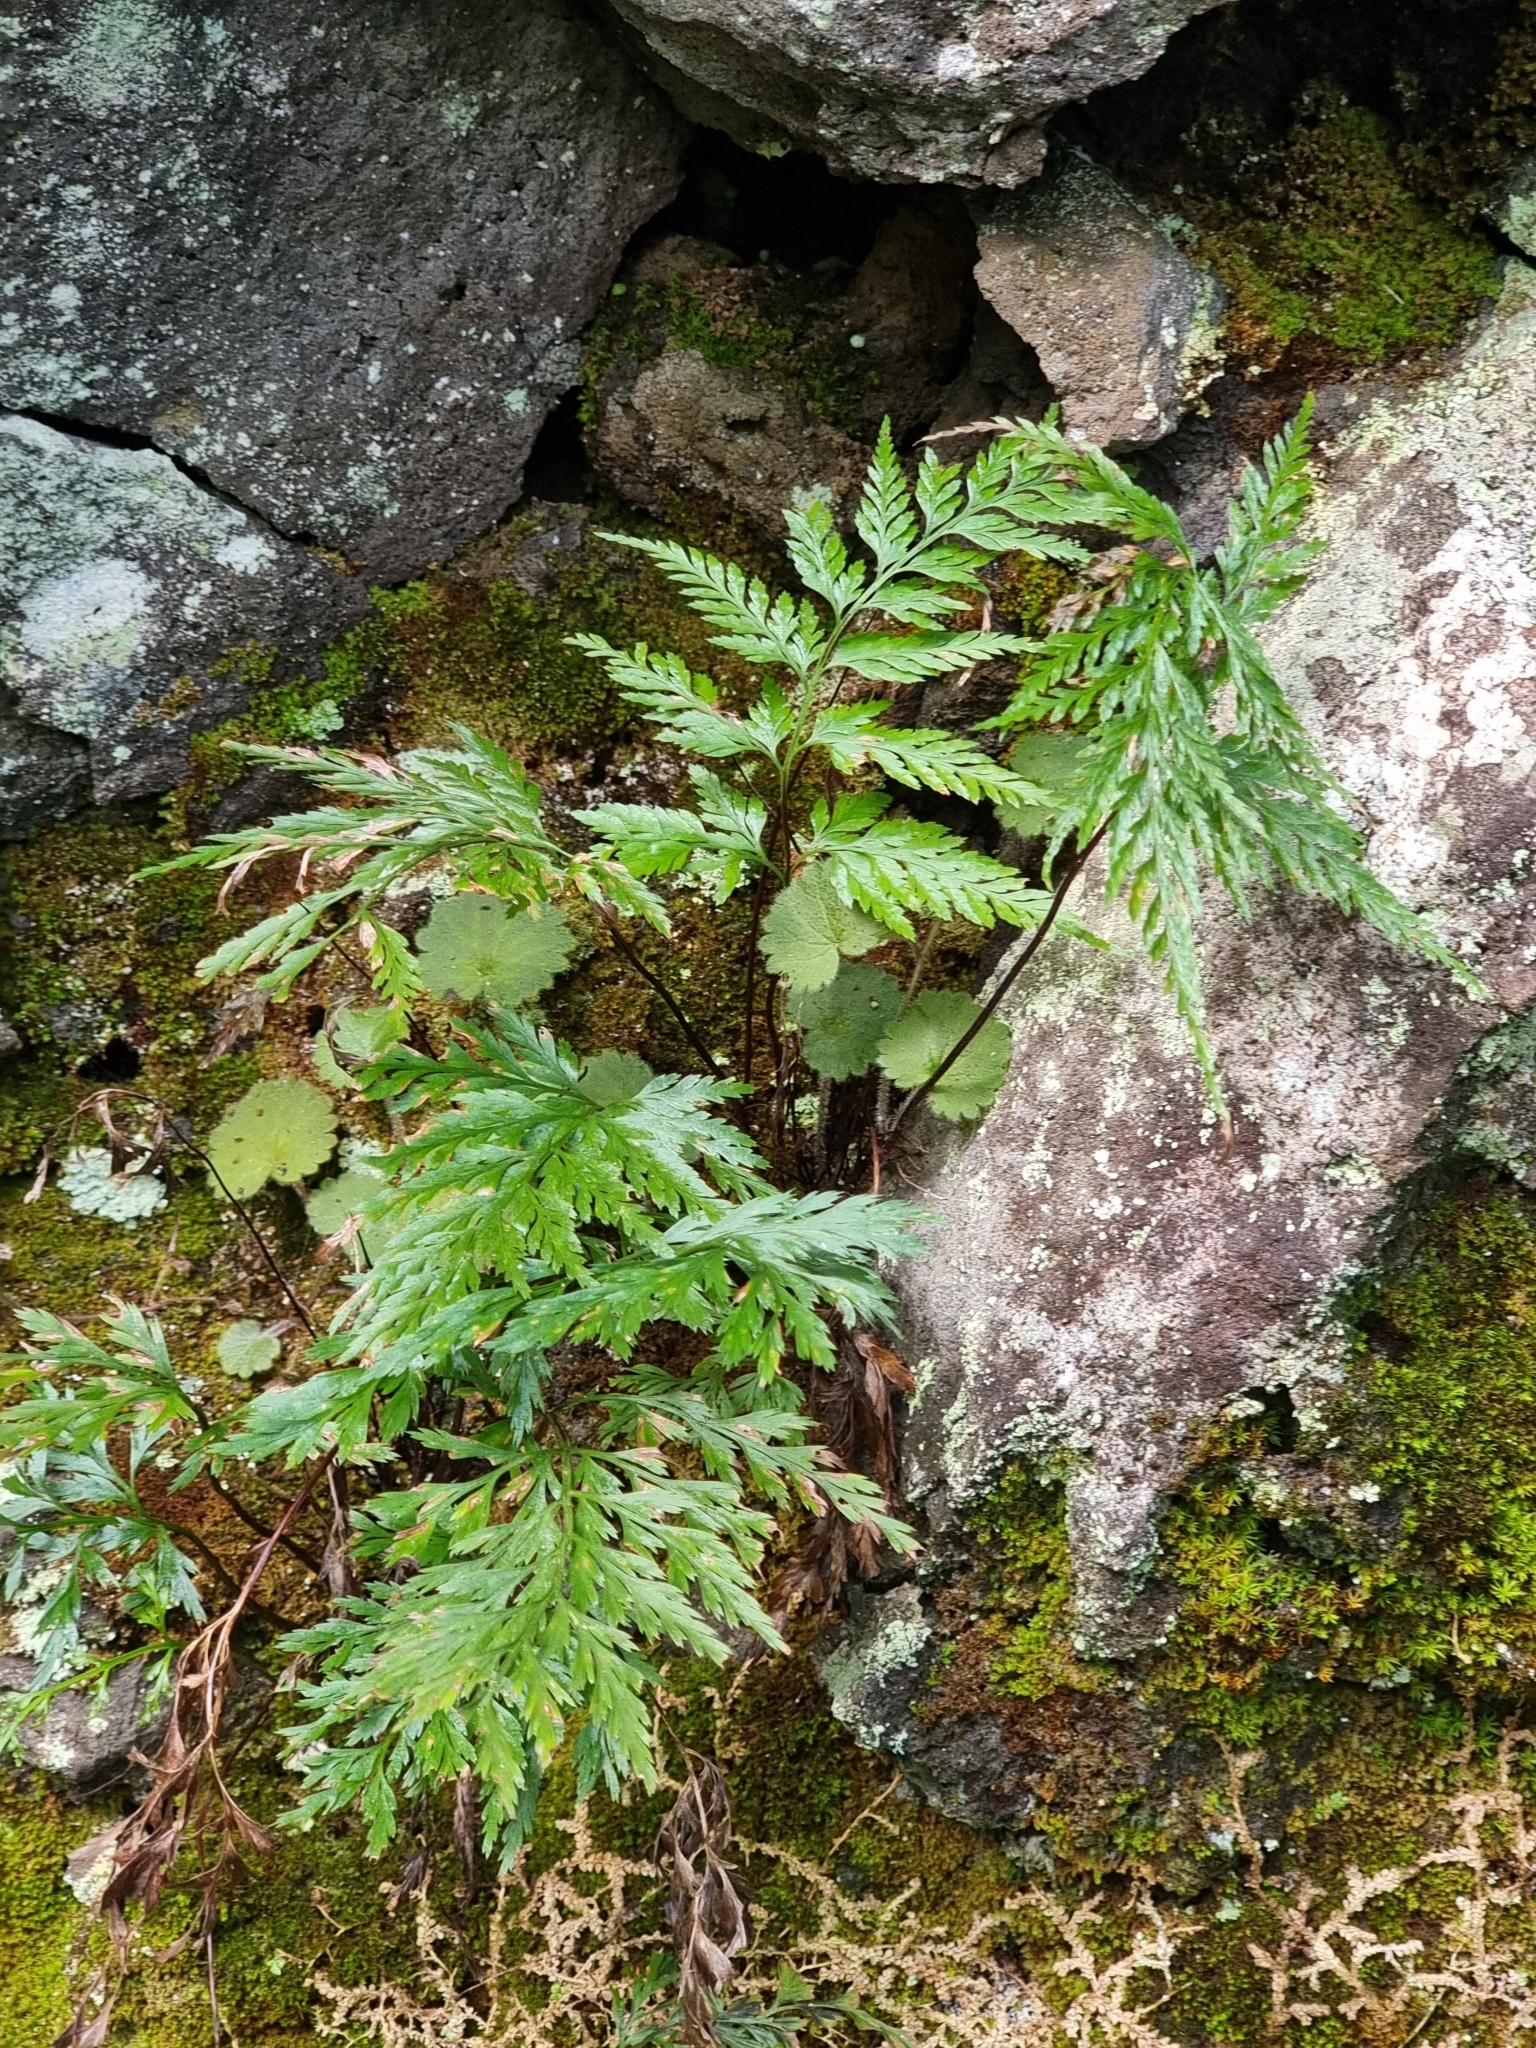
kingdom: Plantae
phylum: Tracheophyta
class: Polypodiopsida
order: Polypodiales
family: Aspleniaceae
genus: Asplenium
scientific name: Asplenium onopteris
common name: Irish spleenwort
